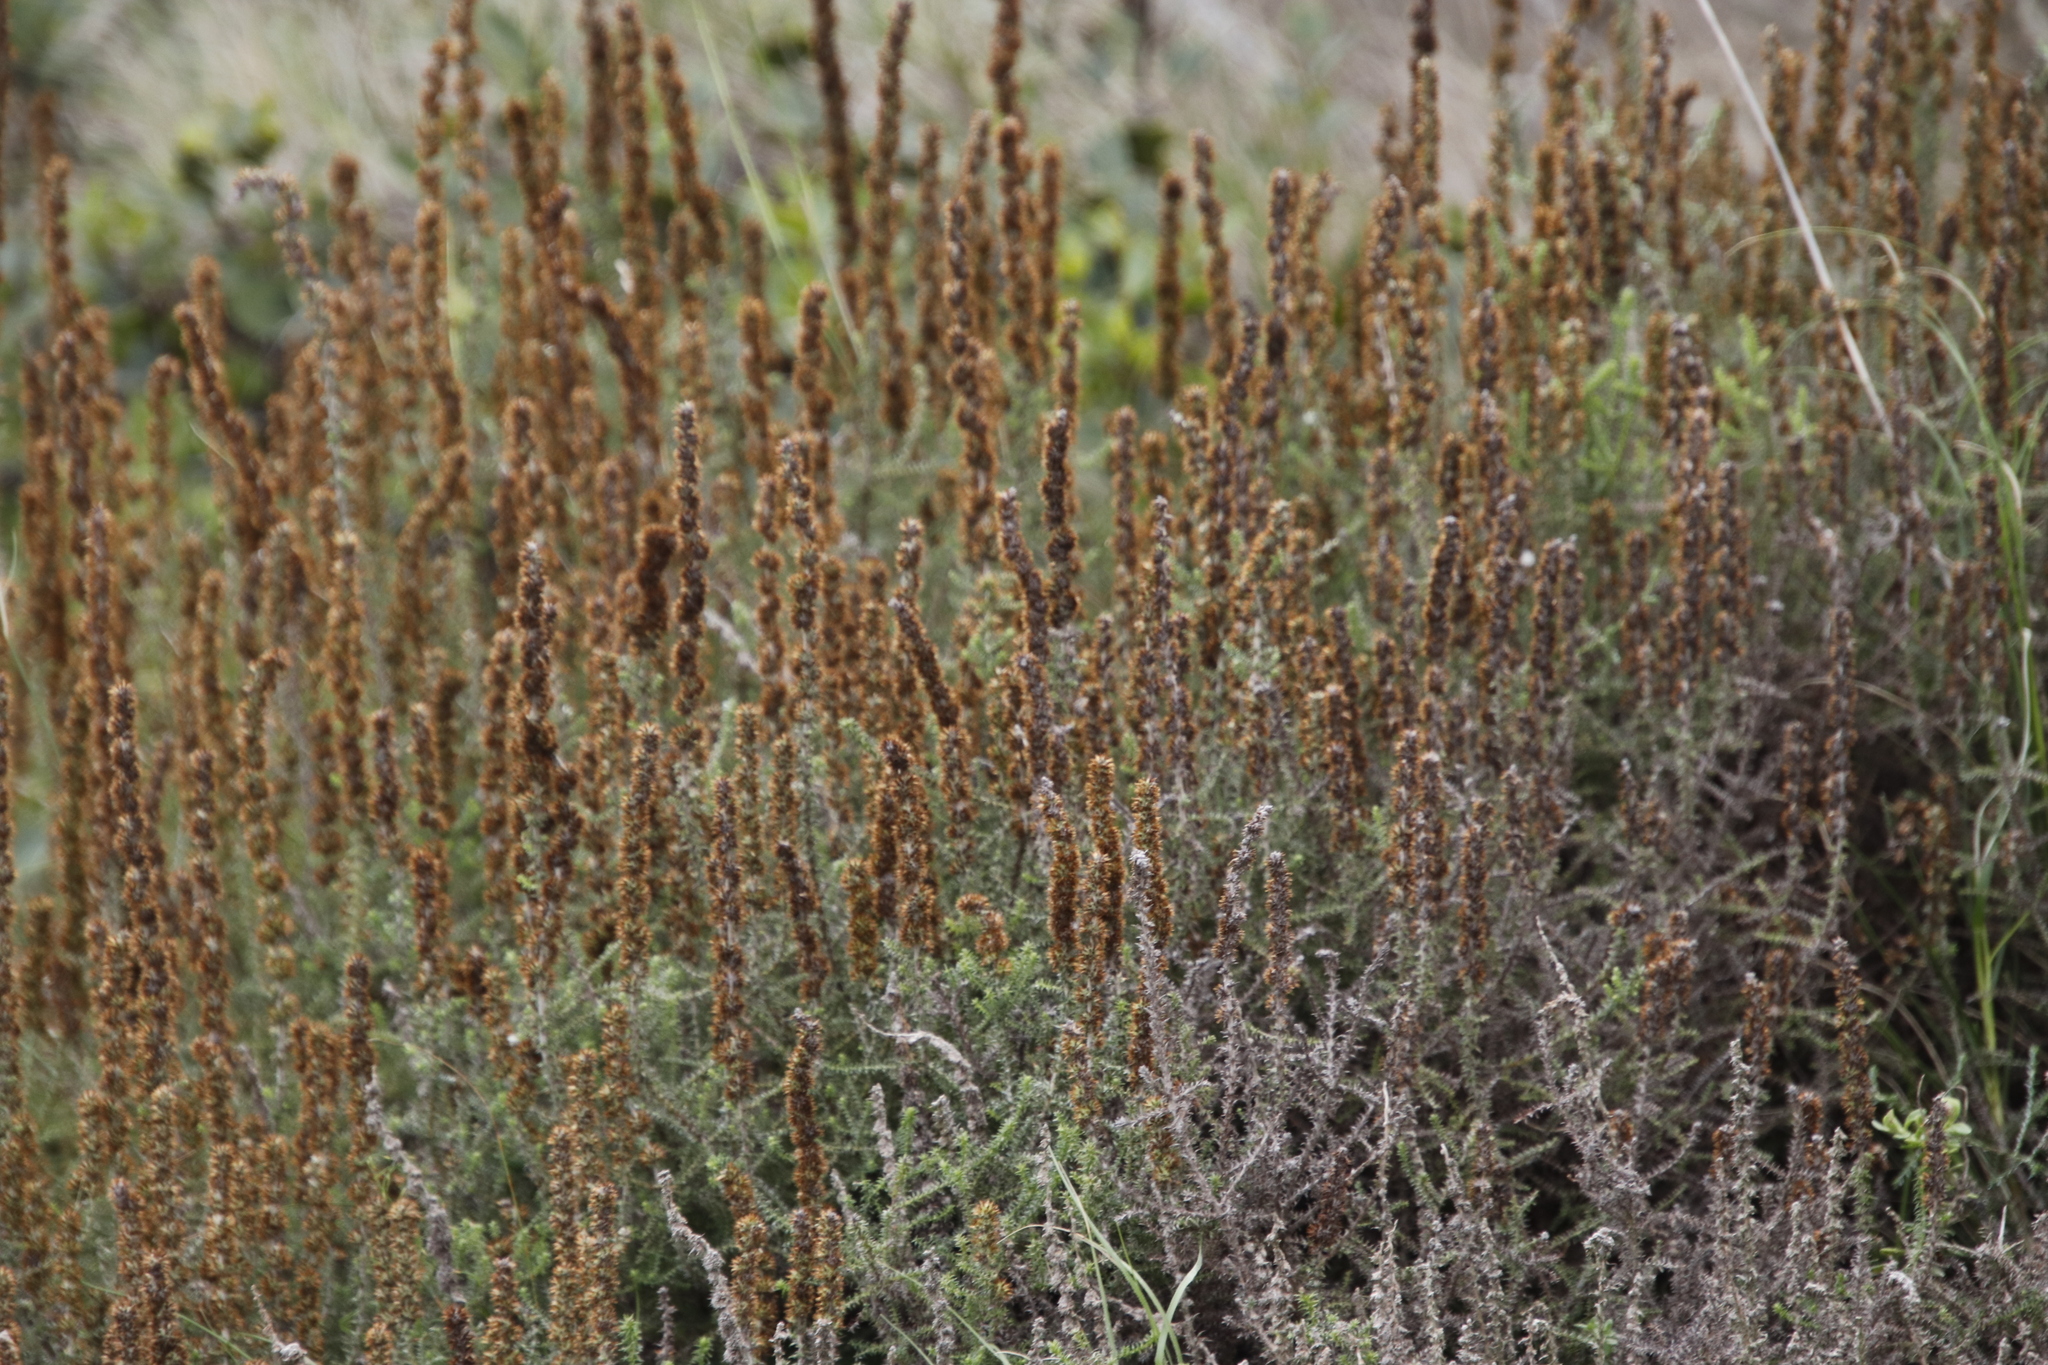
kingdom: Plantae
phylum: Tracheophyta
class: Magnoliopsida
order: Asterales
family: Asteraceae
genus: Seriphium
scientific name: Seriphium cinereum
